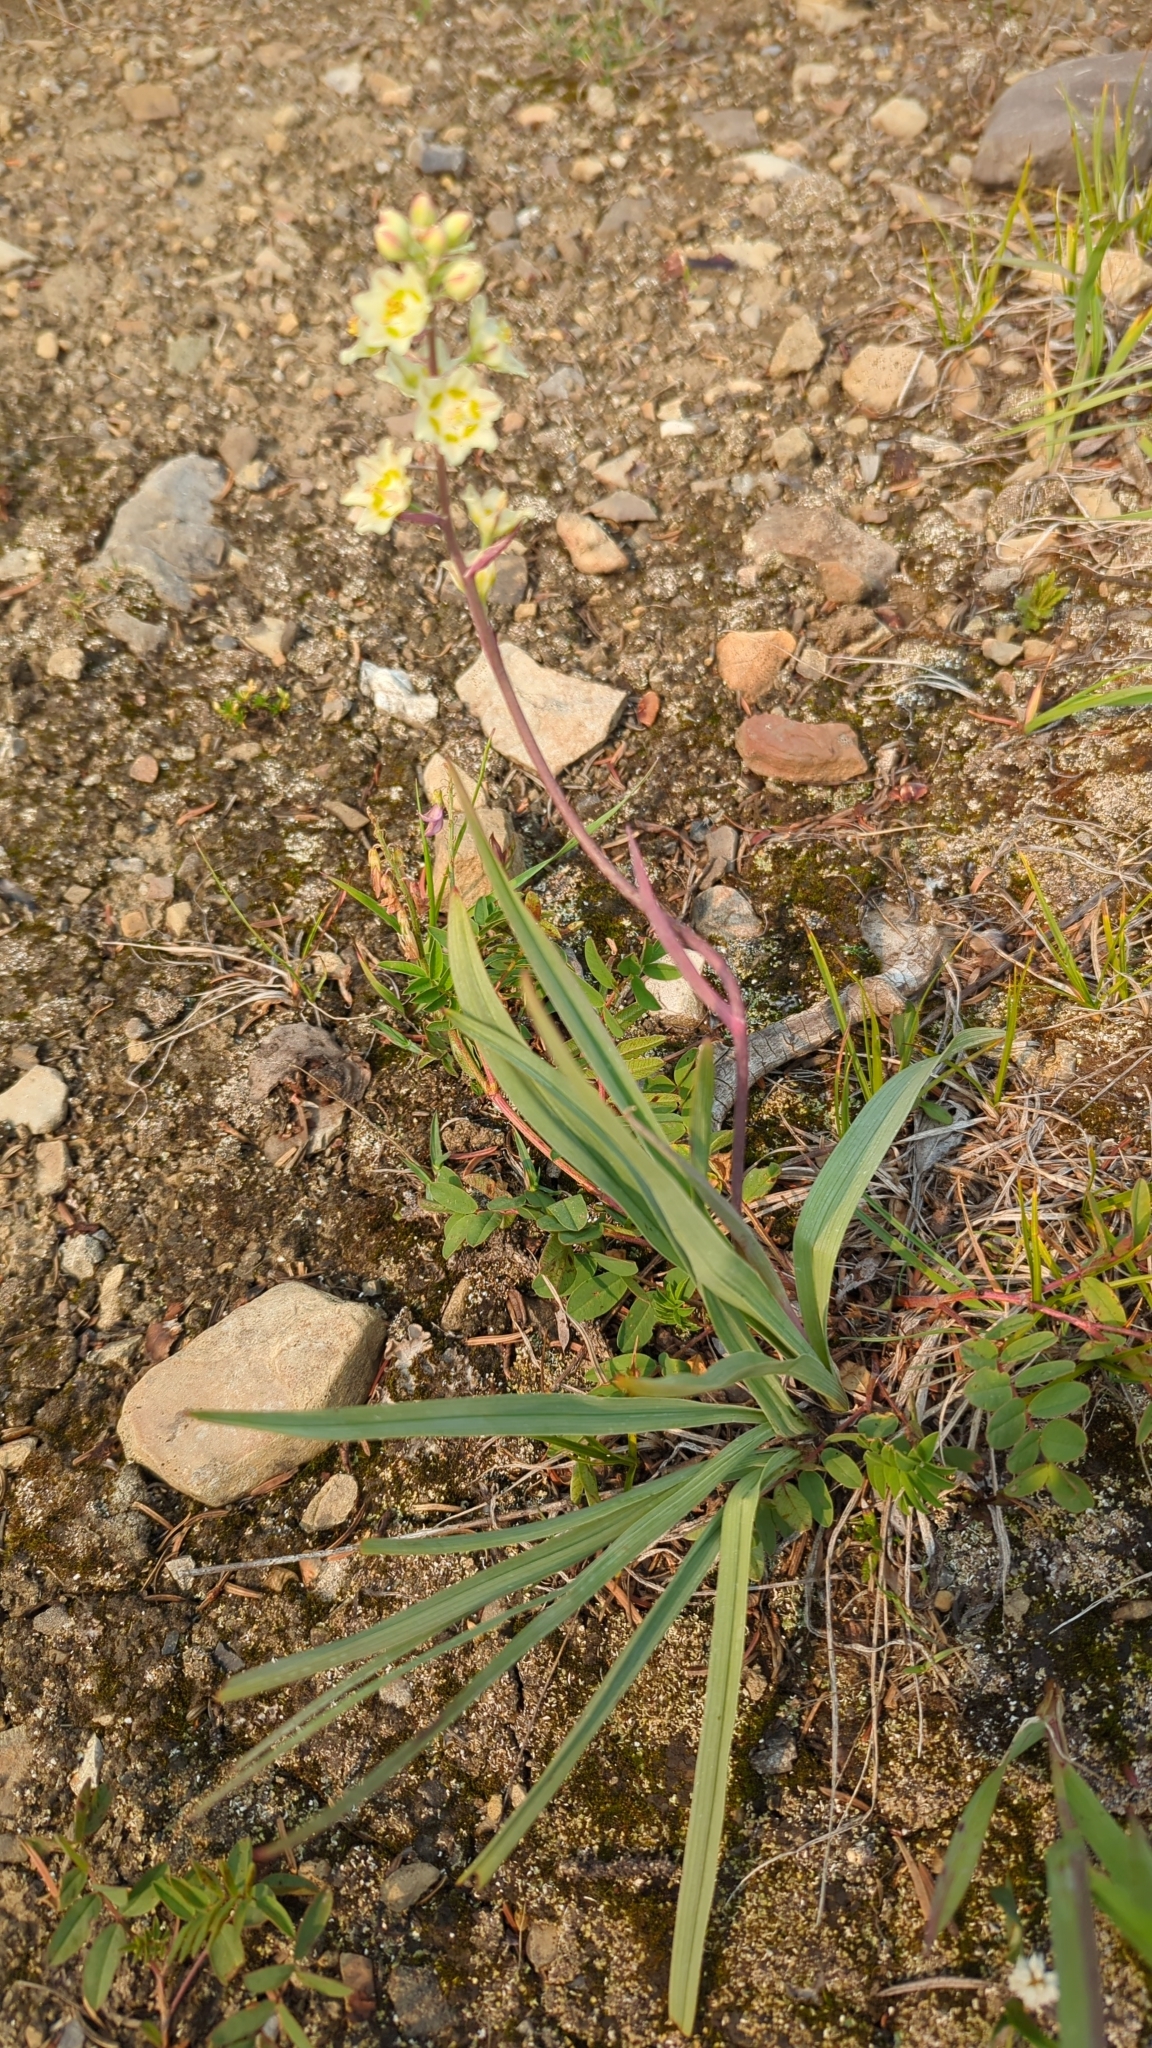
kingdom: Plantae
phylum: Tracheophyta
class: Liliopsida
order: Liliales
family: Melanthiaceae
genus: Anticlea
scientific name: Anticlea elegans
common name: Mountain death camas
